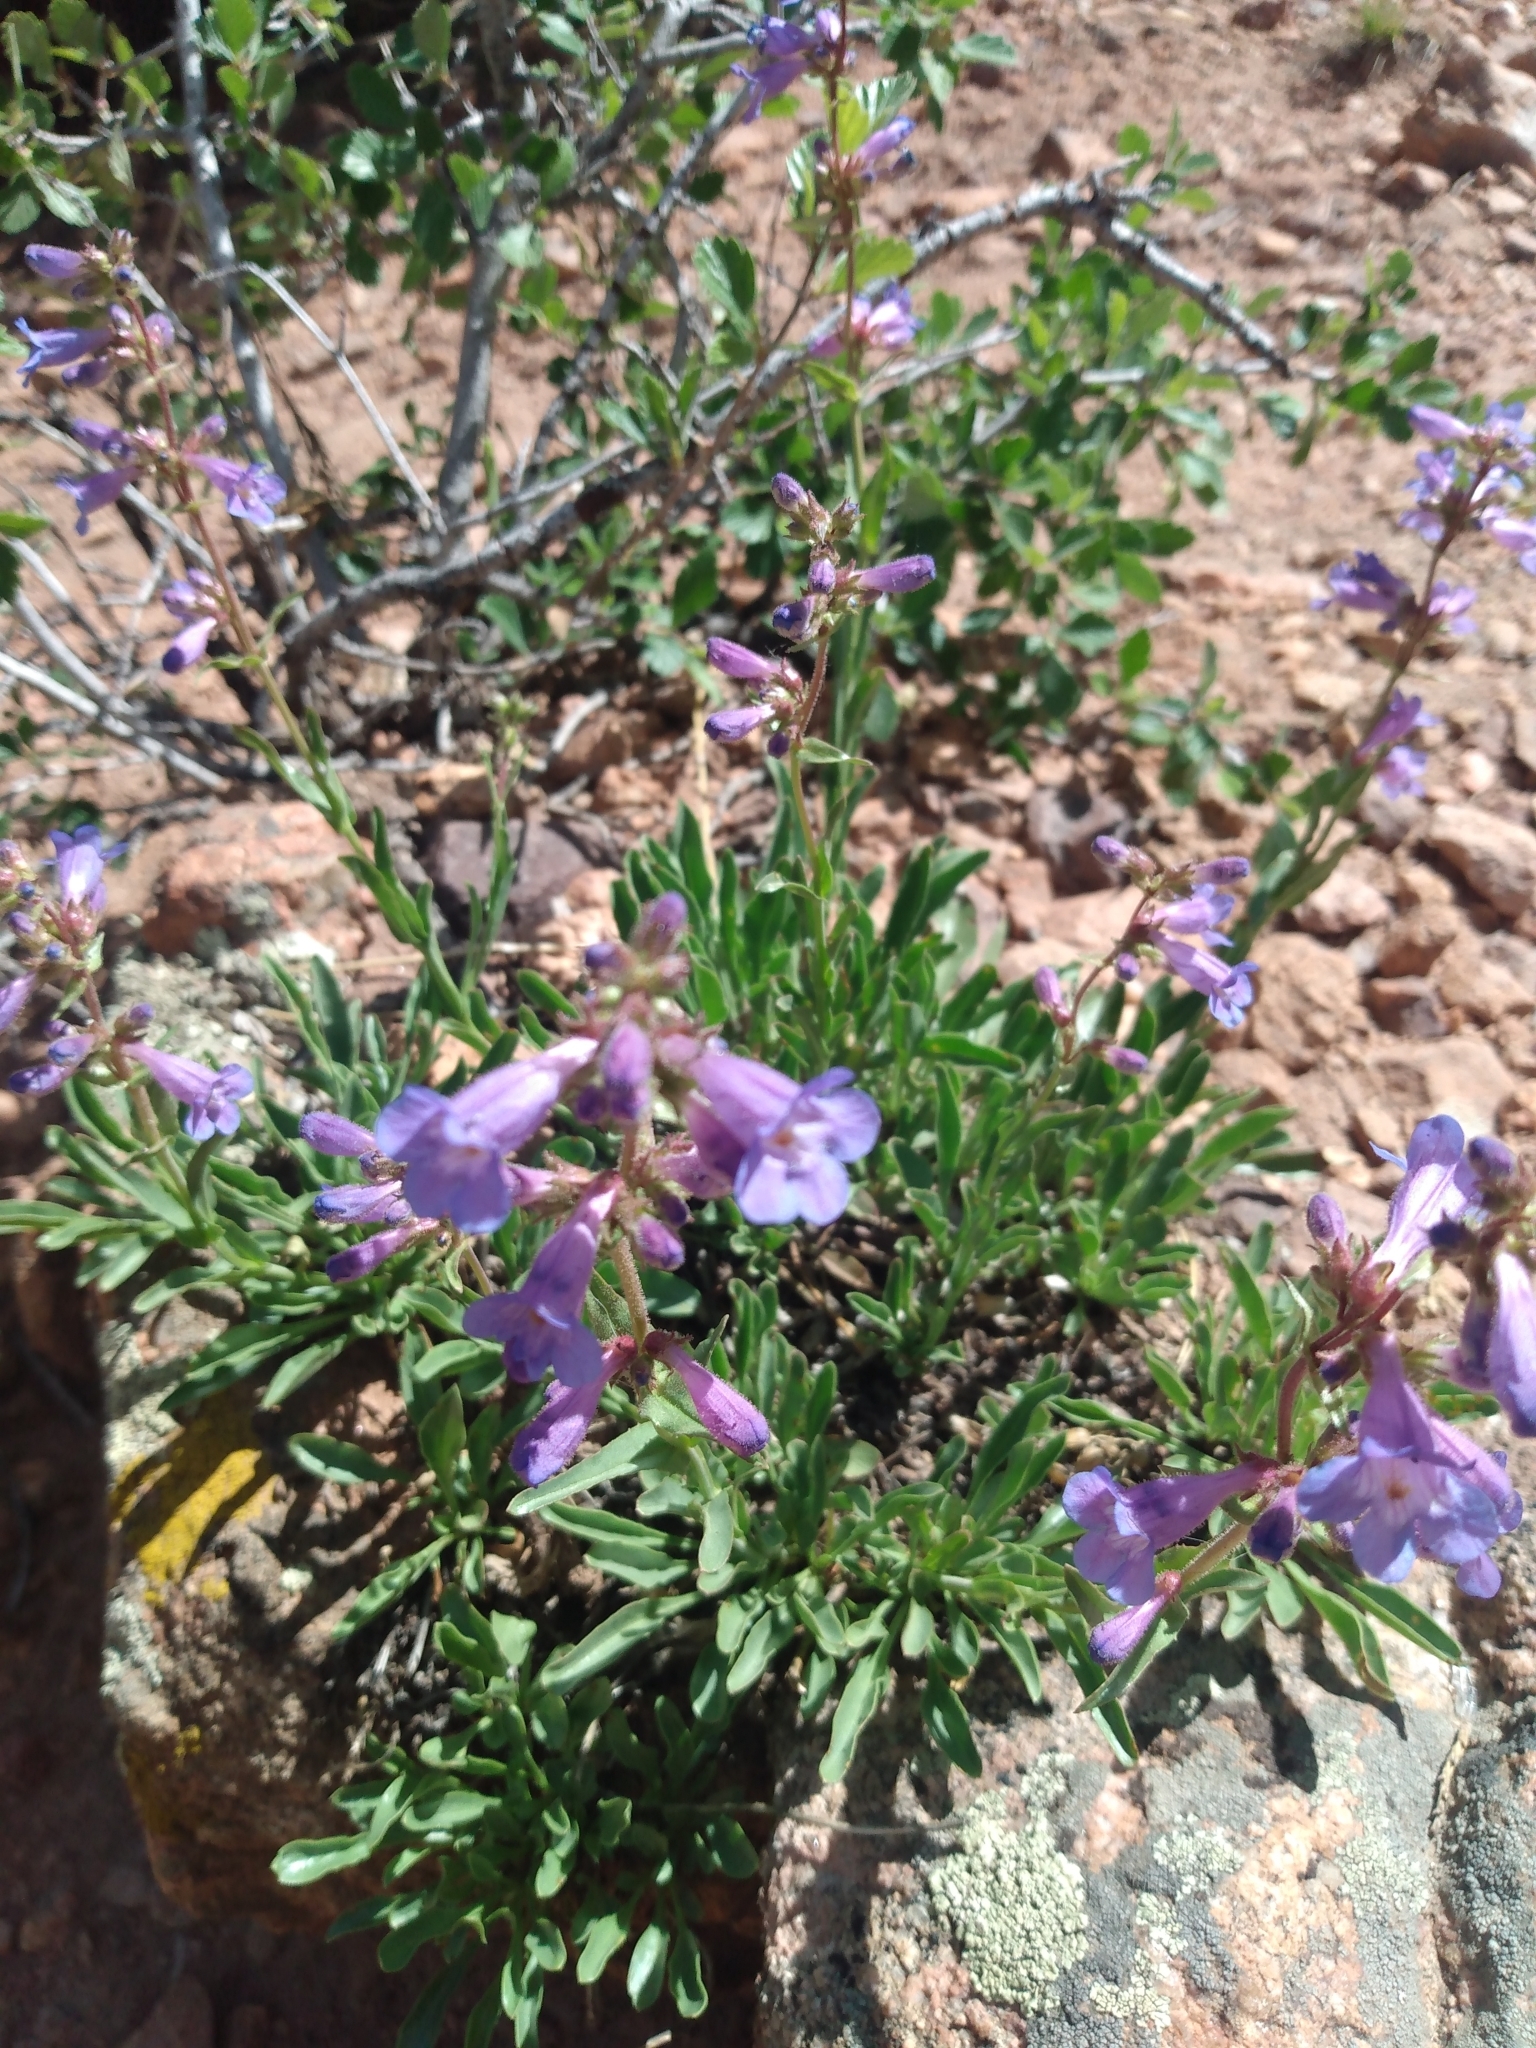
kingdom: Plantae
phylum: Tracheophyta
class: Magnoliopsida
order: Lamiales
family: Plantaginaceae
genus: Penstemon
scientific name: Penstemon virens
